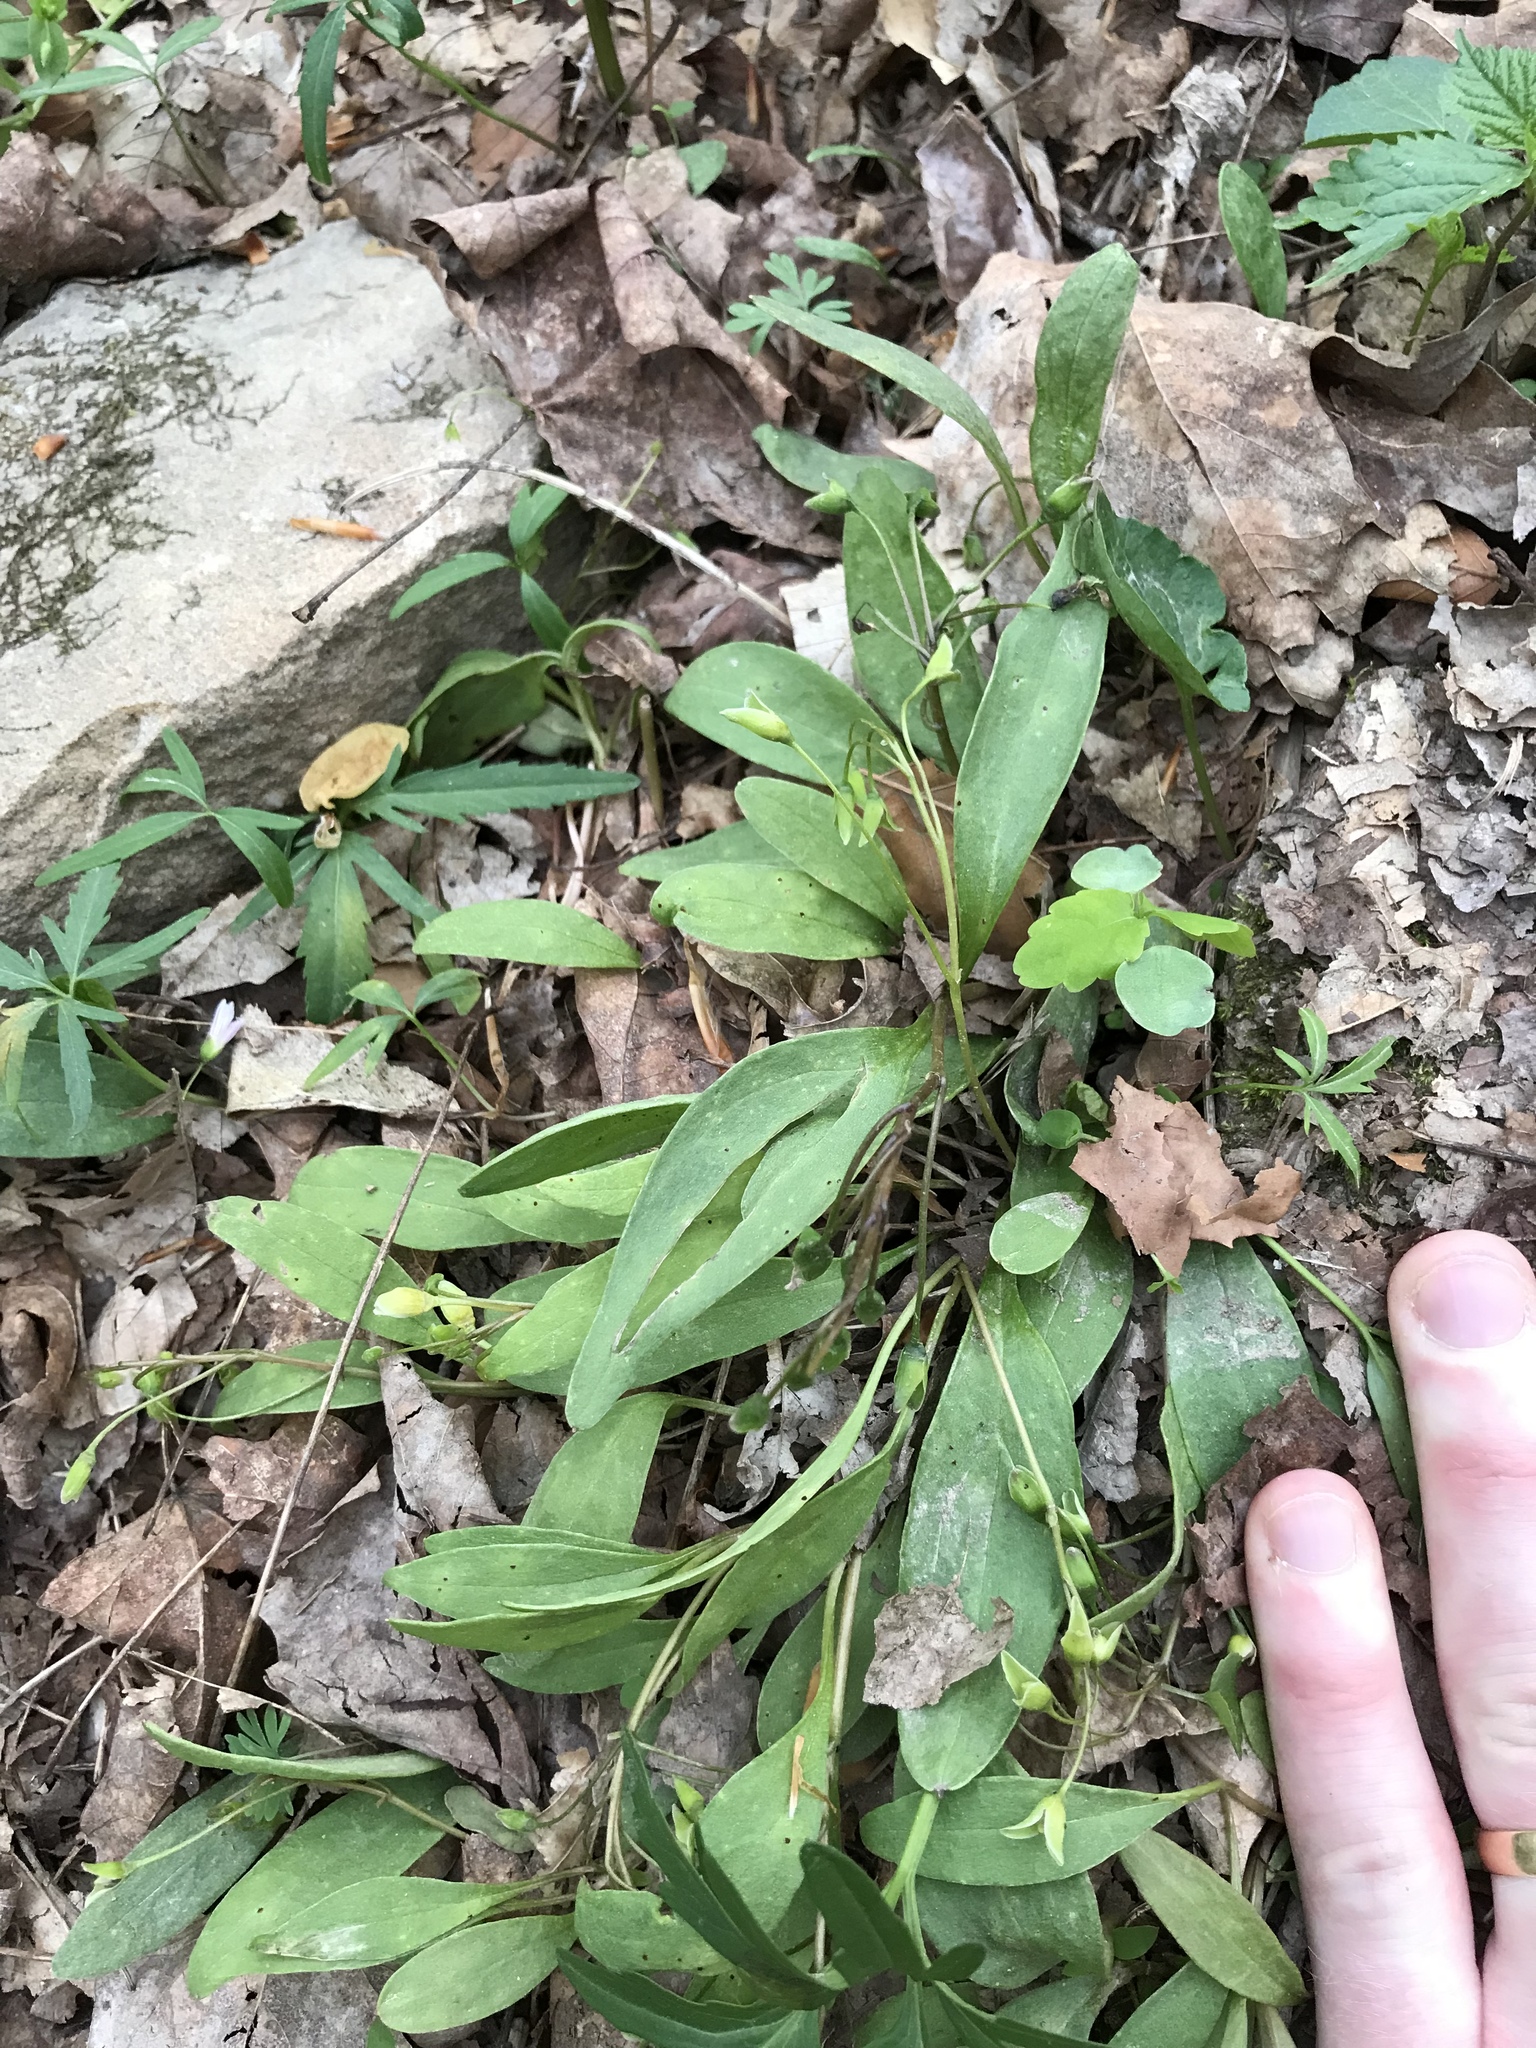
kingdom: Plantae
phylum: Tracheophyta
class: Magnoliopsida
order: Caryophyllales
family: Montiaceae
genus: Claytonia
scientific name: Claytonia caroliniana
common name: Carolina spring beauty
